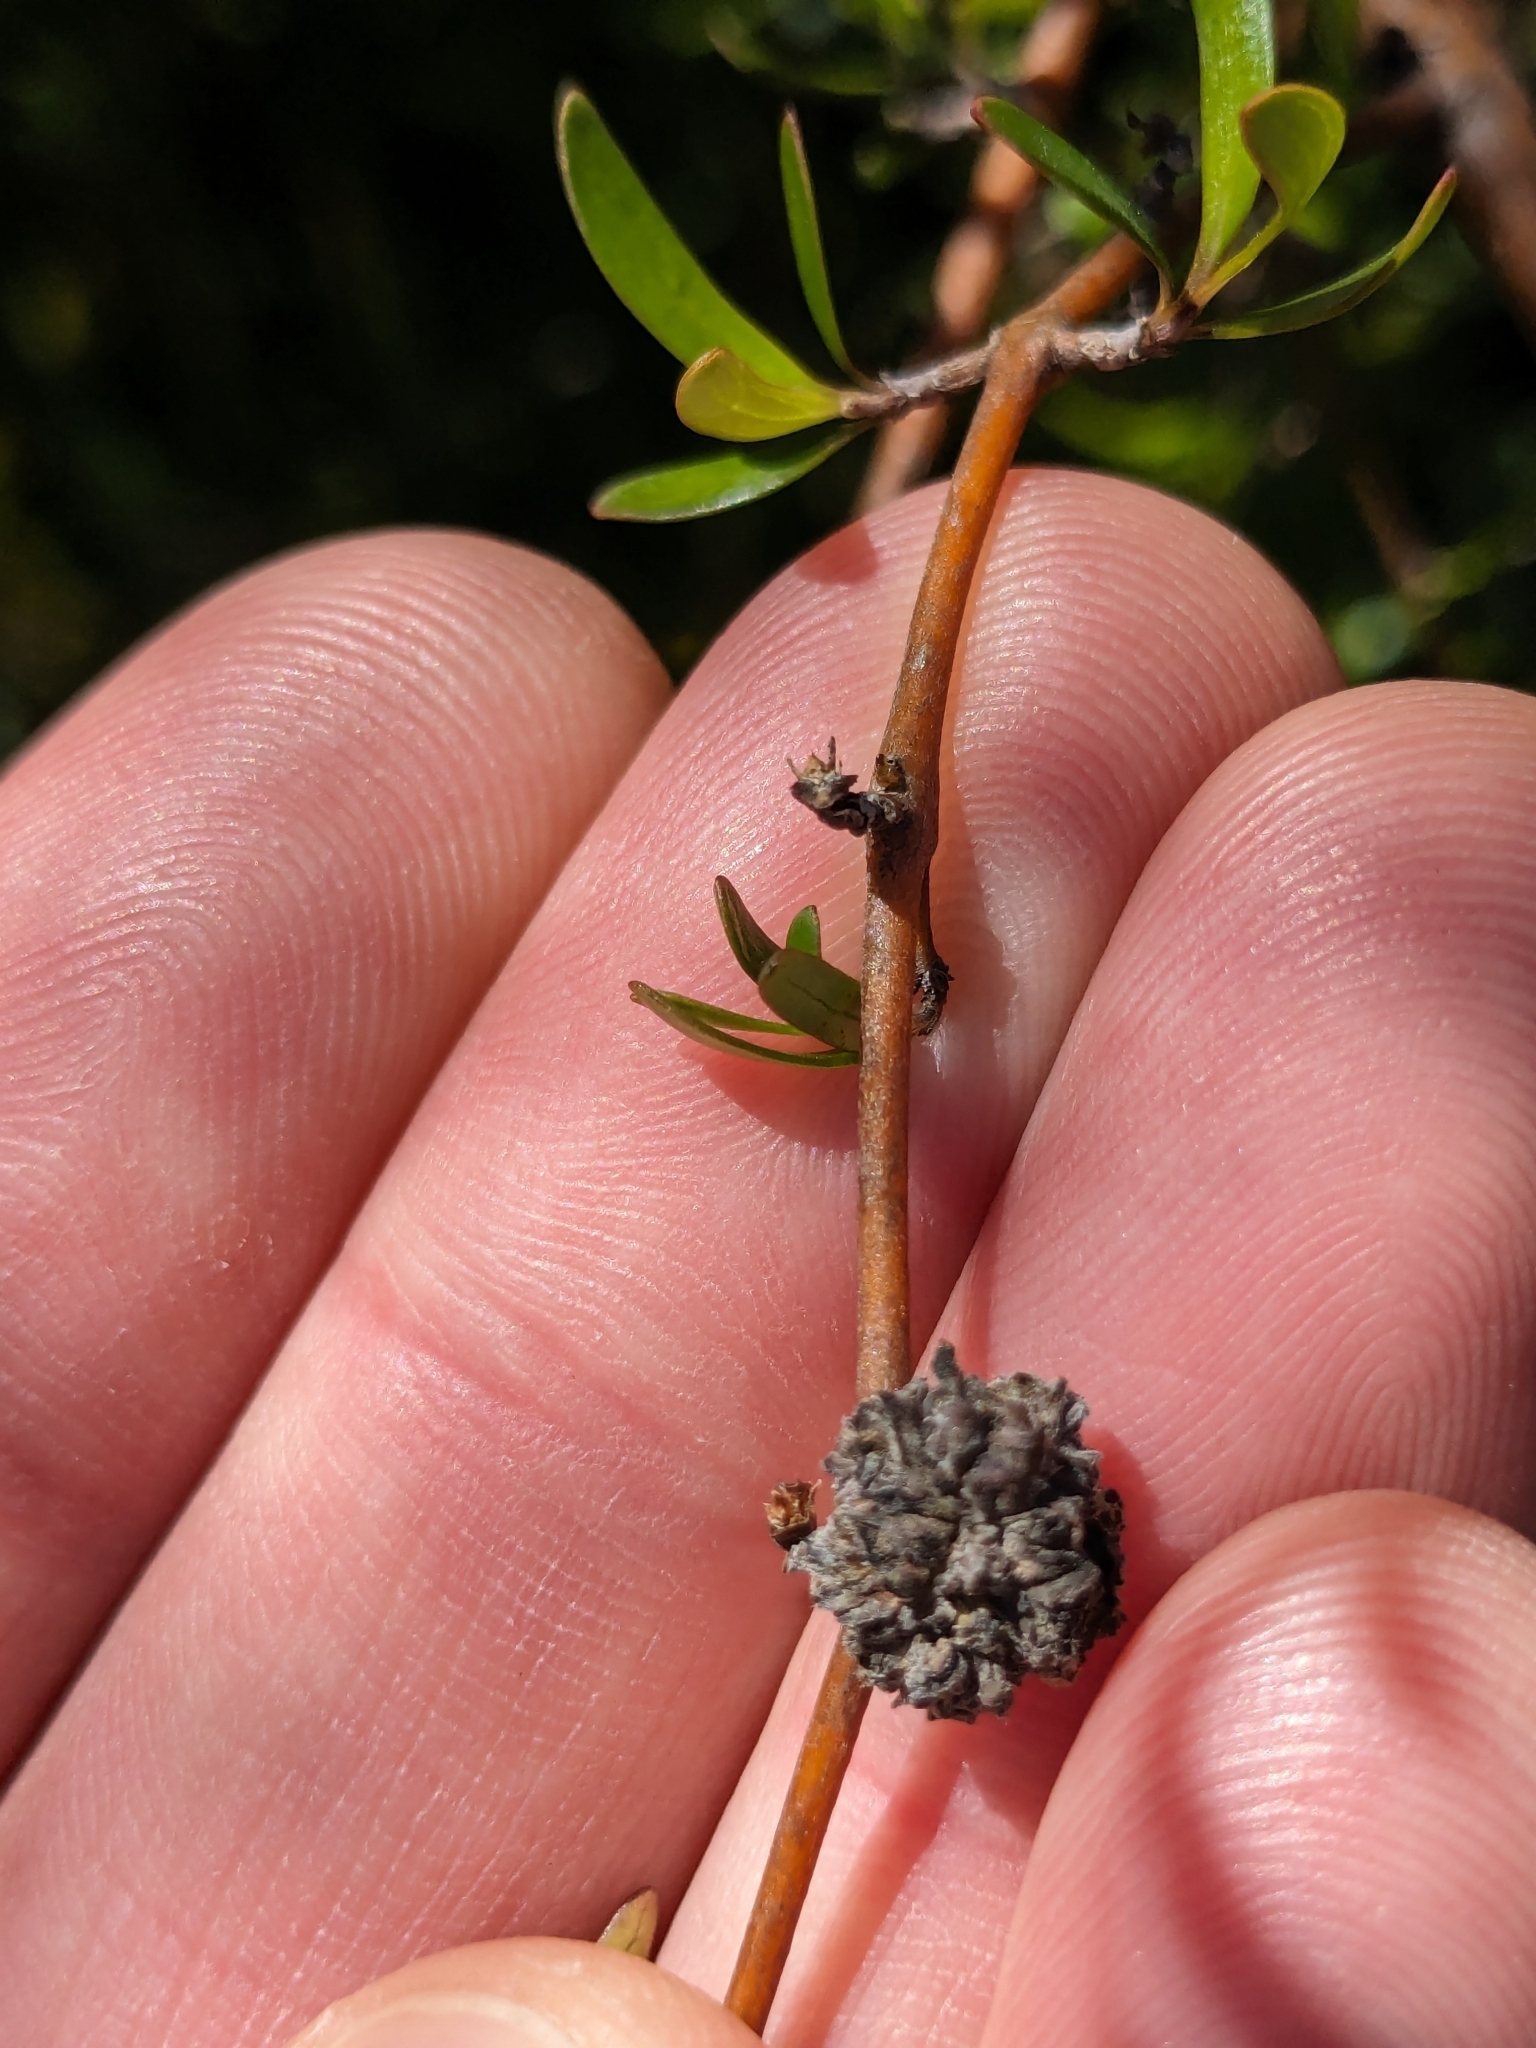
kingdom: Animalia
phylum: Arthropoda
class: Arachnida
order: Trombidiformes
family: Eriophyidae
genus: Acalitus
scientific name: Acalitus
